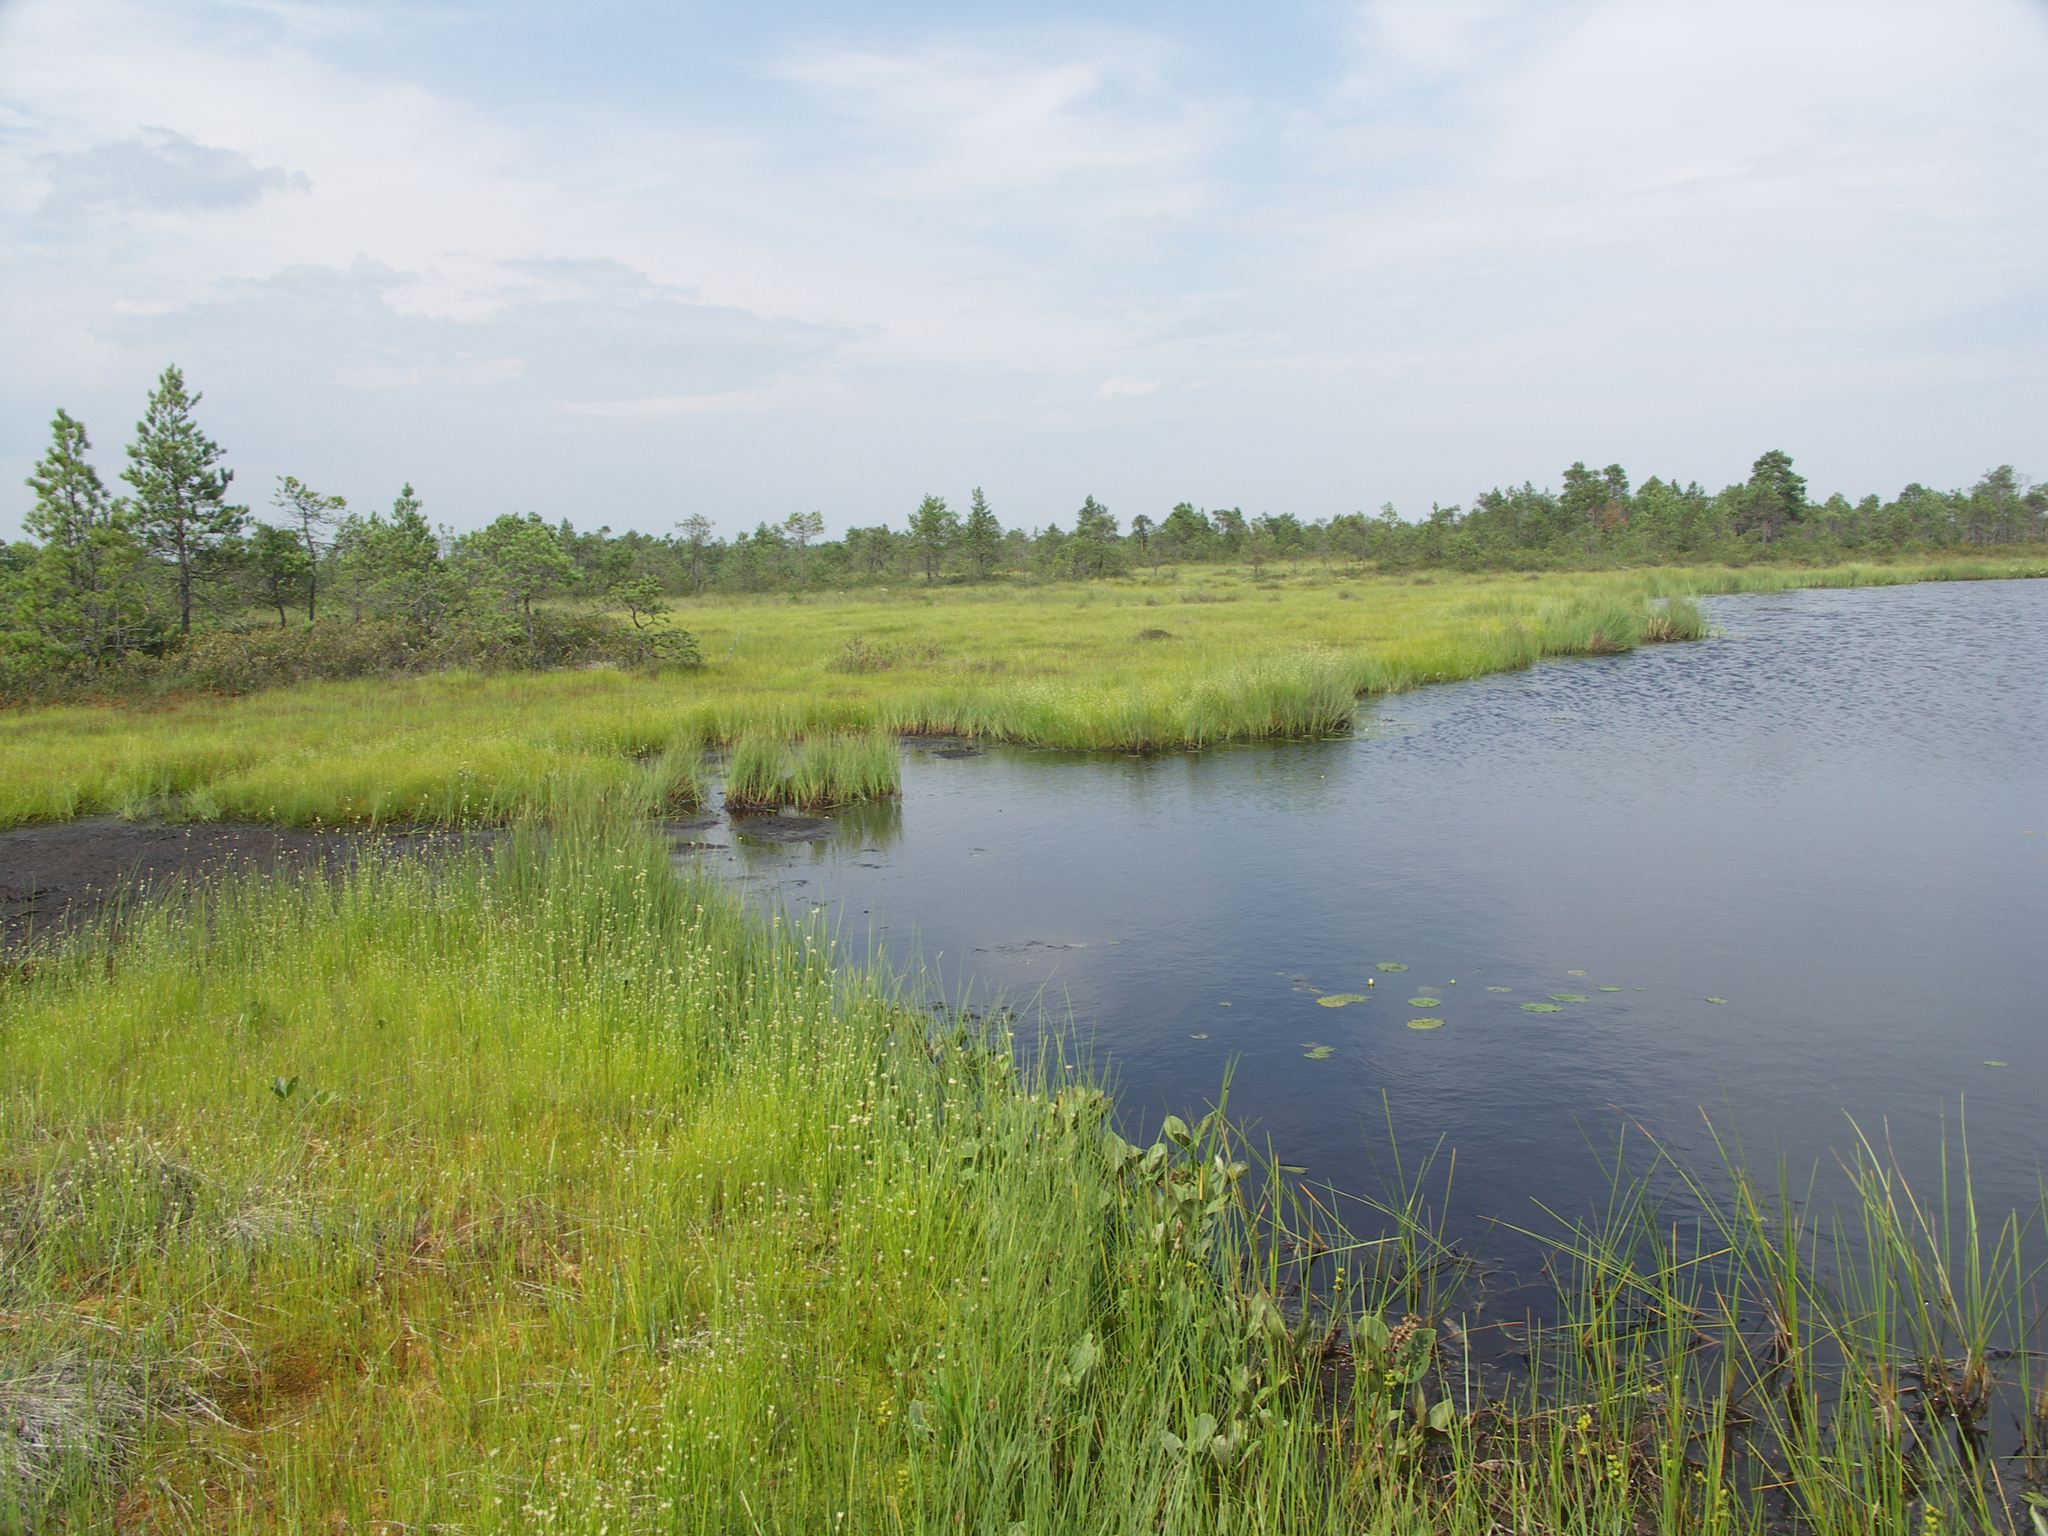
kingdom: Plantae
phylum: Tracheophyta
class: Pinopsida
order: Pinales
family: Pinaceae
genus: Pinus
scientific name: Pinus sylvestris
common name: Scots pine
